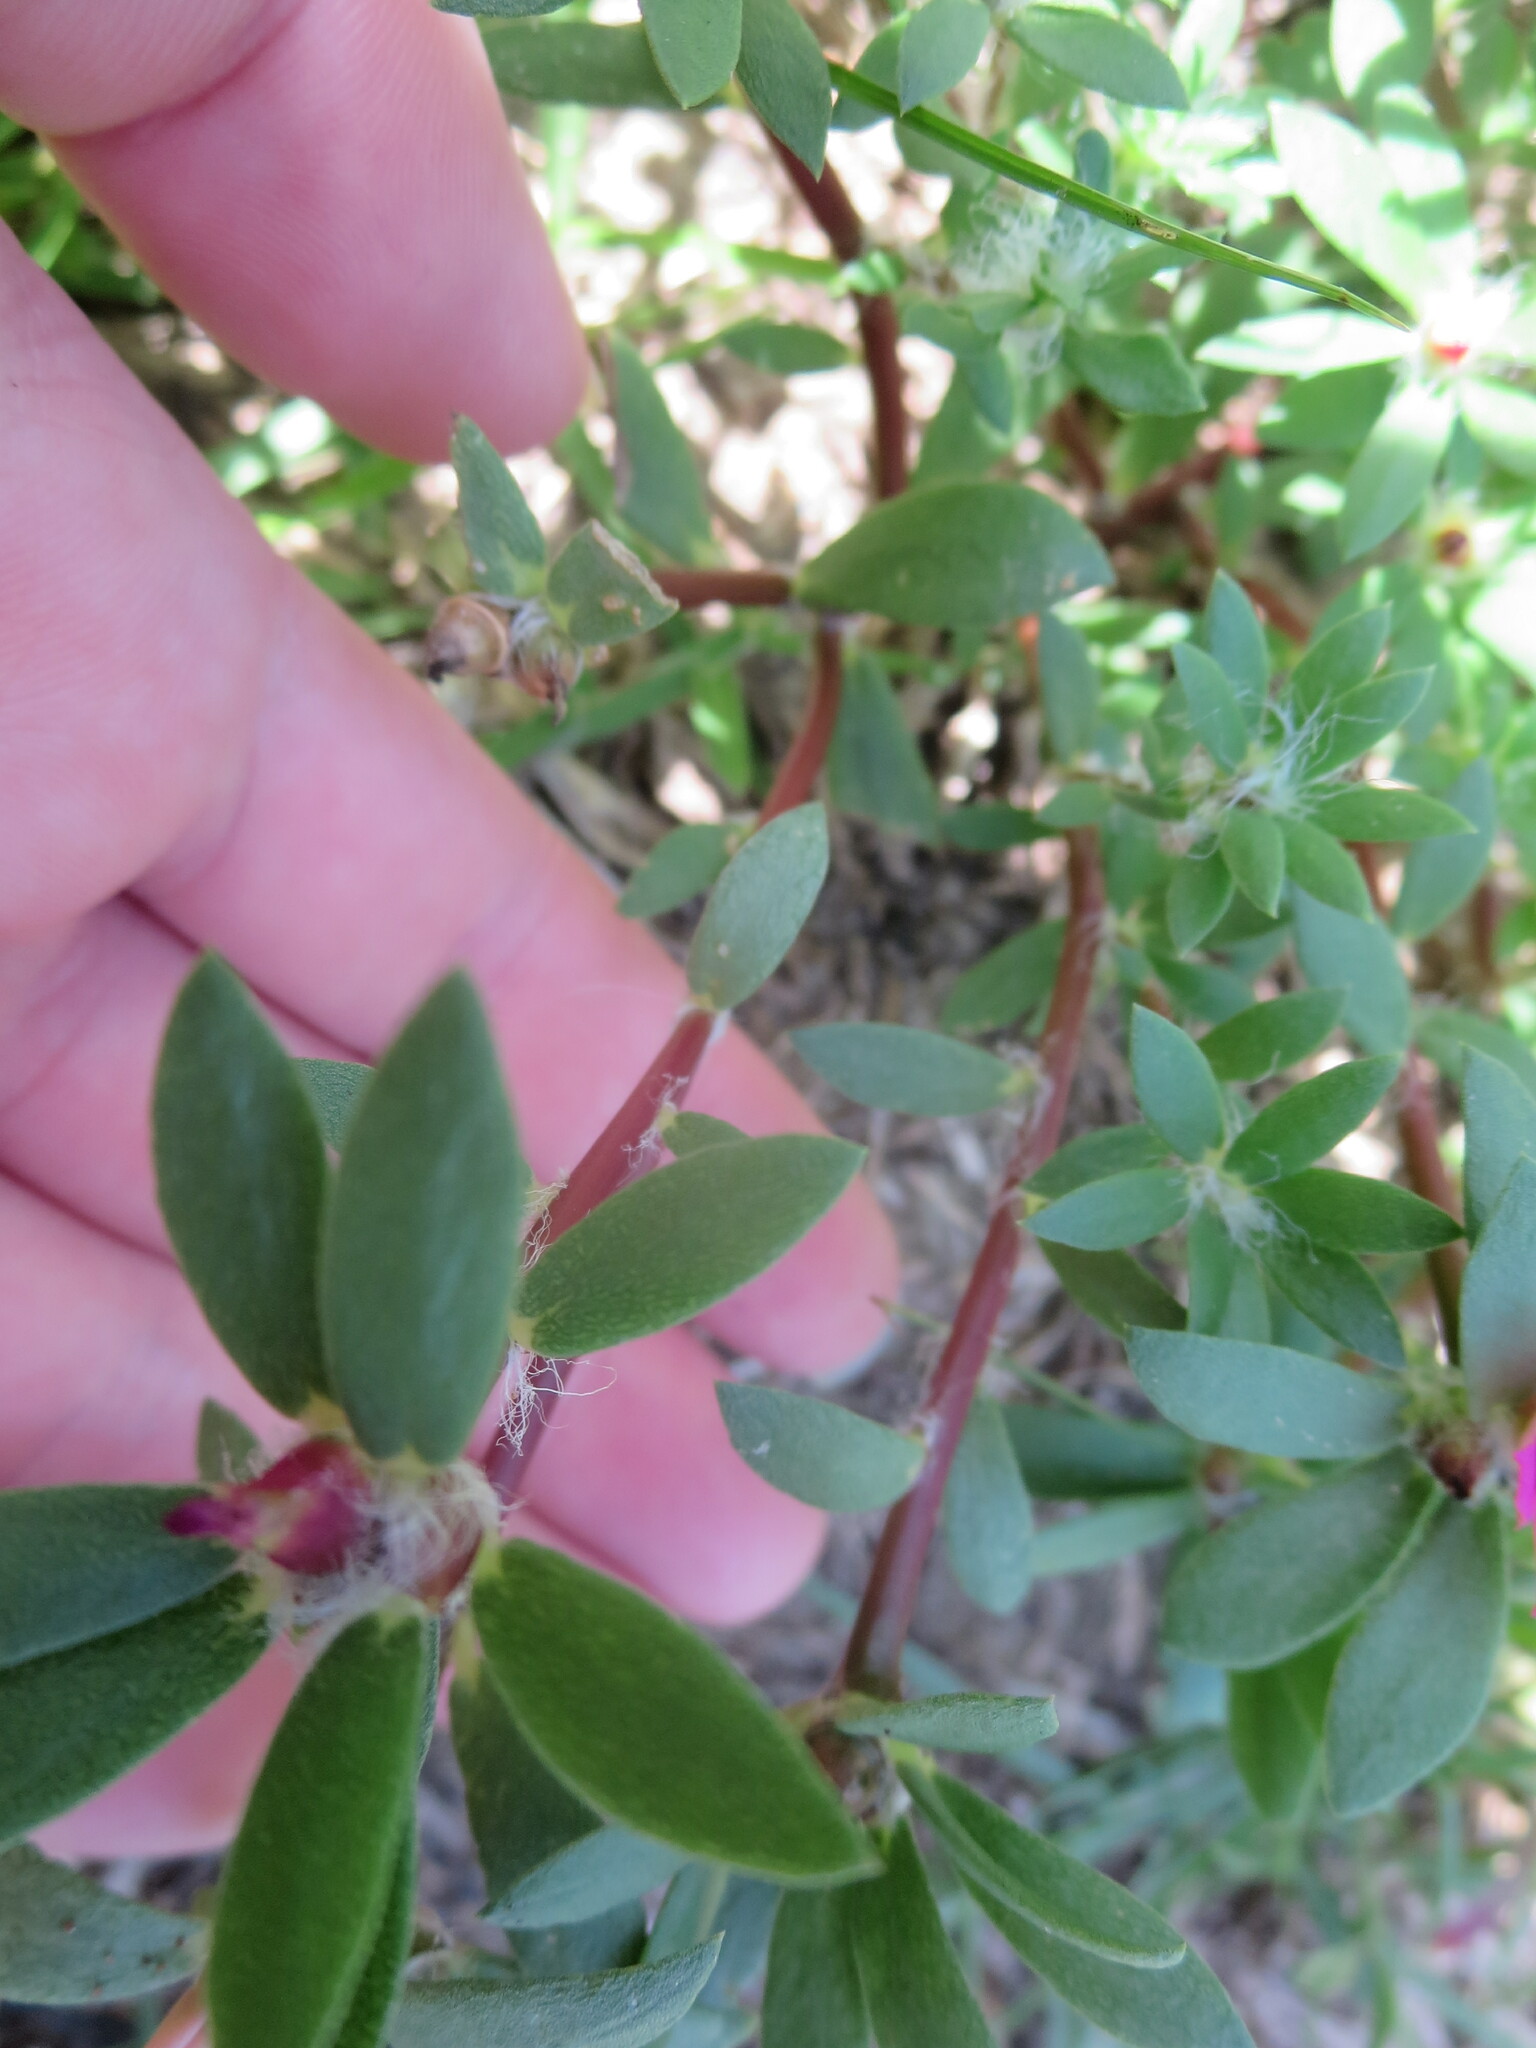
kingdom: Plantae
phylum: Tracheophyta
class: Magnoliopsida
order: Caryophyllales
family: Portulacaceae
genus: Portulaca
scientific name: Portulaca amilis
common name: Paraguayan purslane
